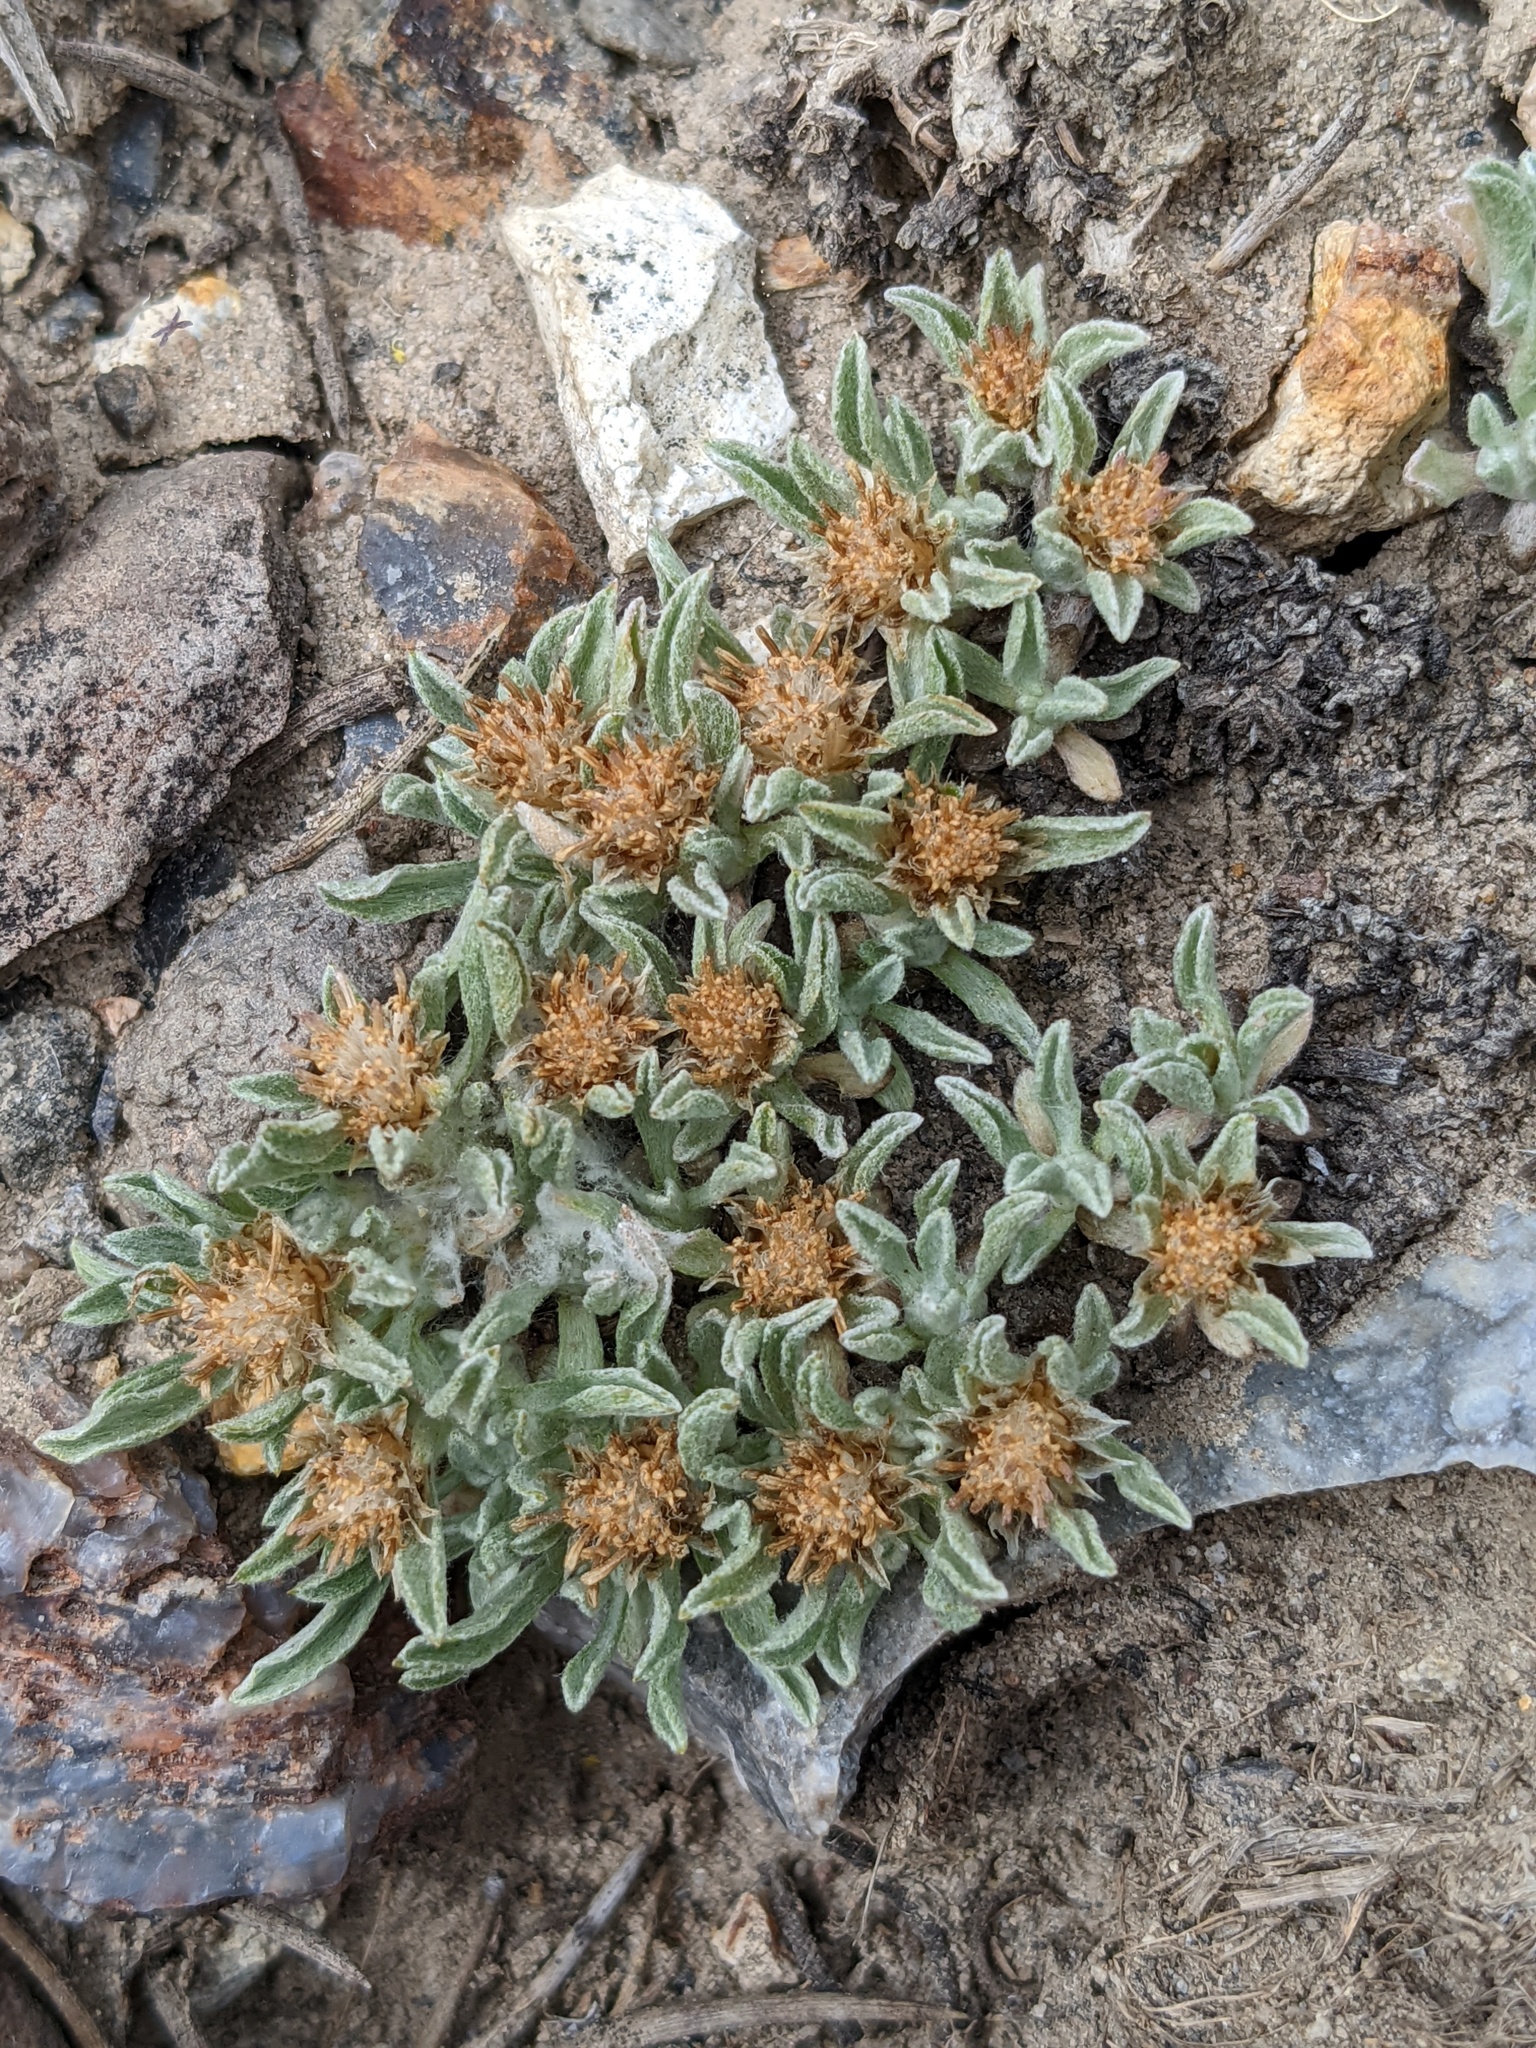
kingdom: Plantae
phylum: Tracheophyta
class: Magnoliopsida
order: Asterales
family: Asteraceae
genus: Antennaria
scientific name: Antennaria dimorpha
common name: Cushion pussytoes
